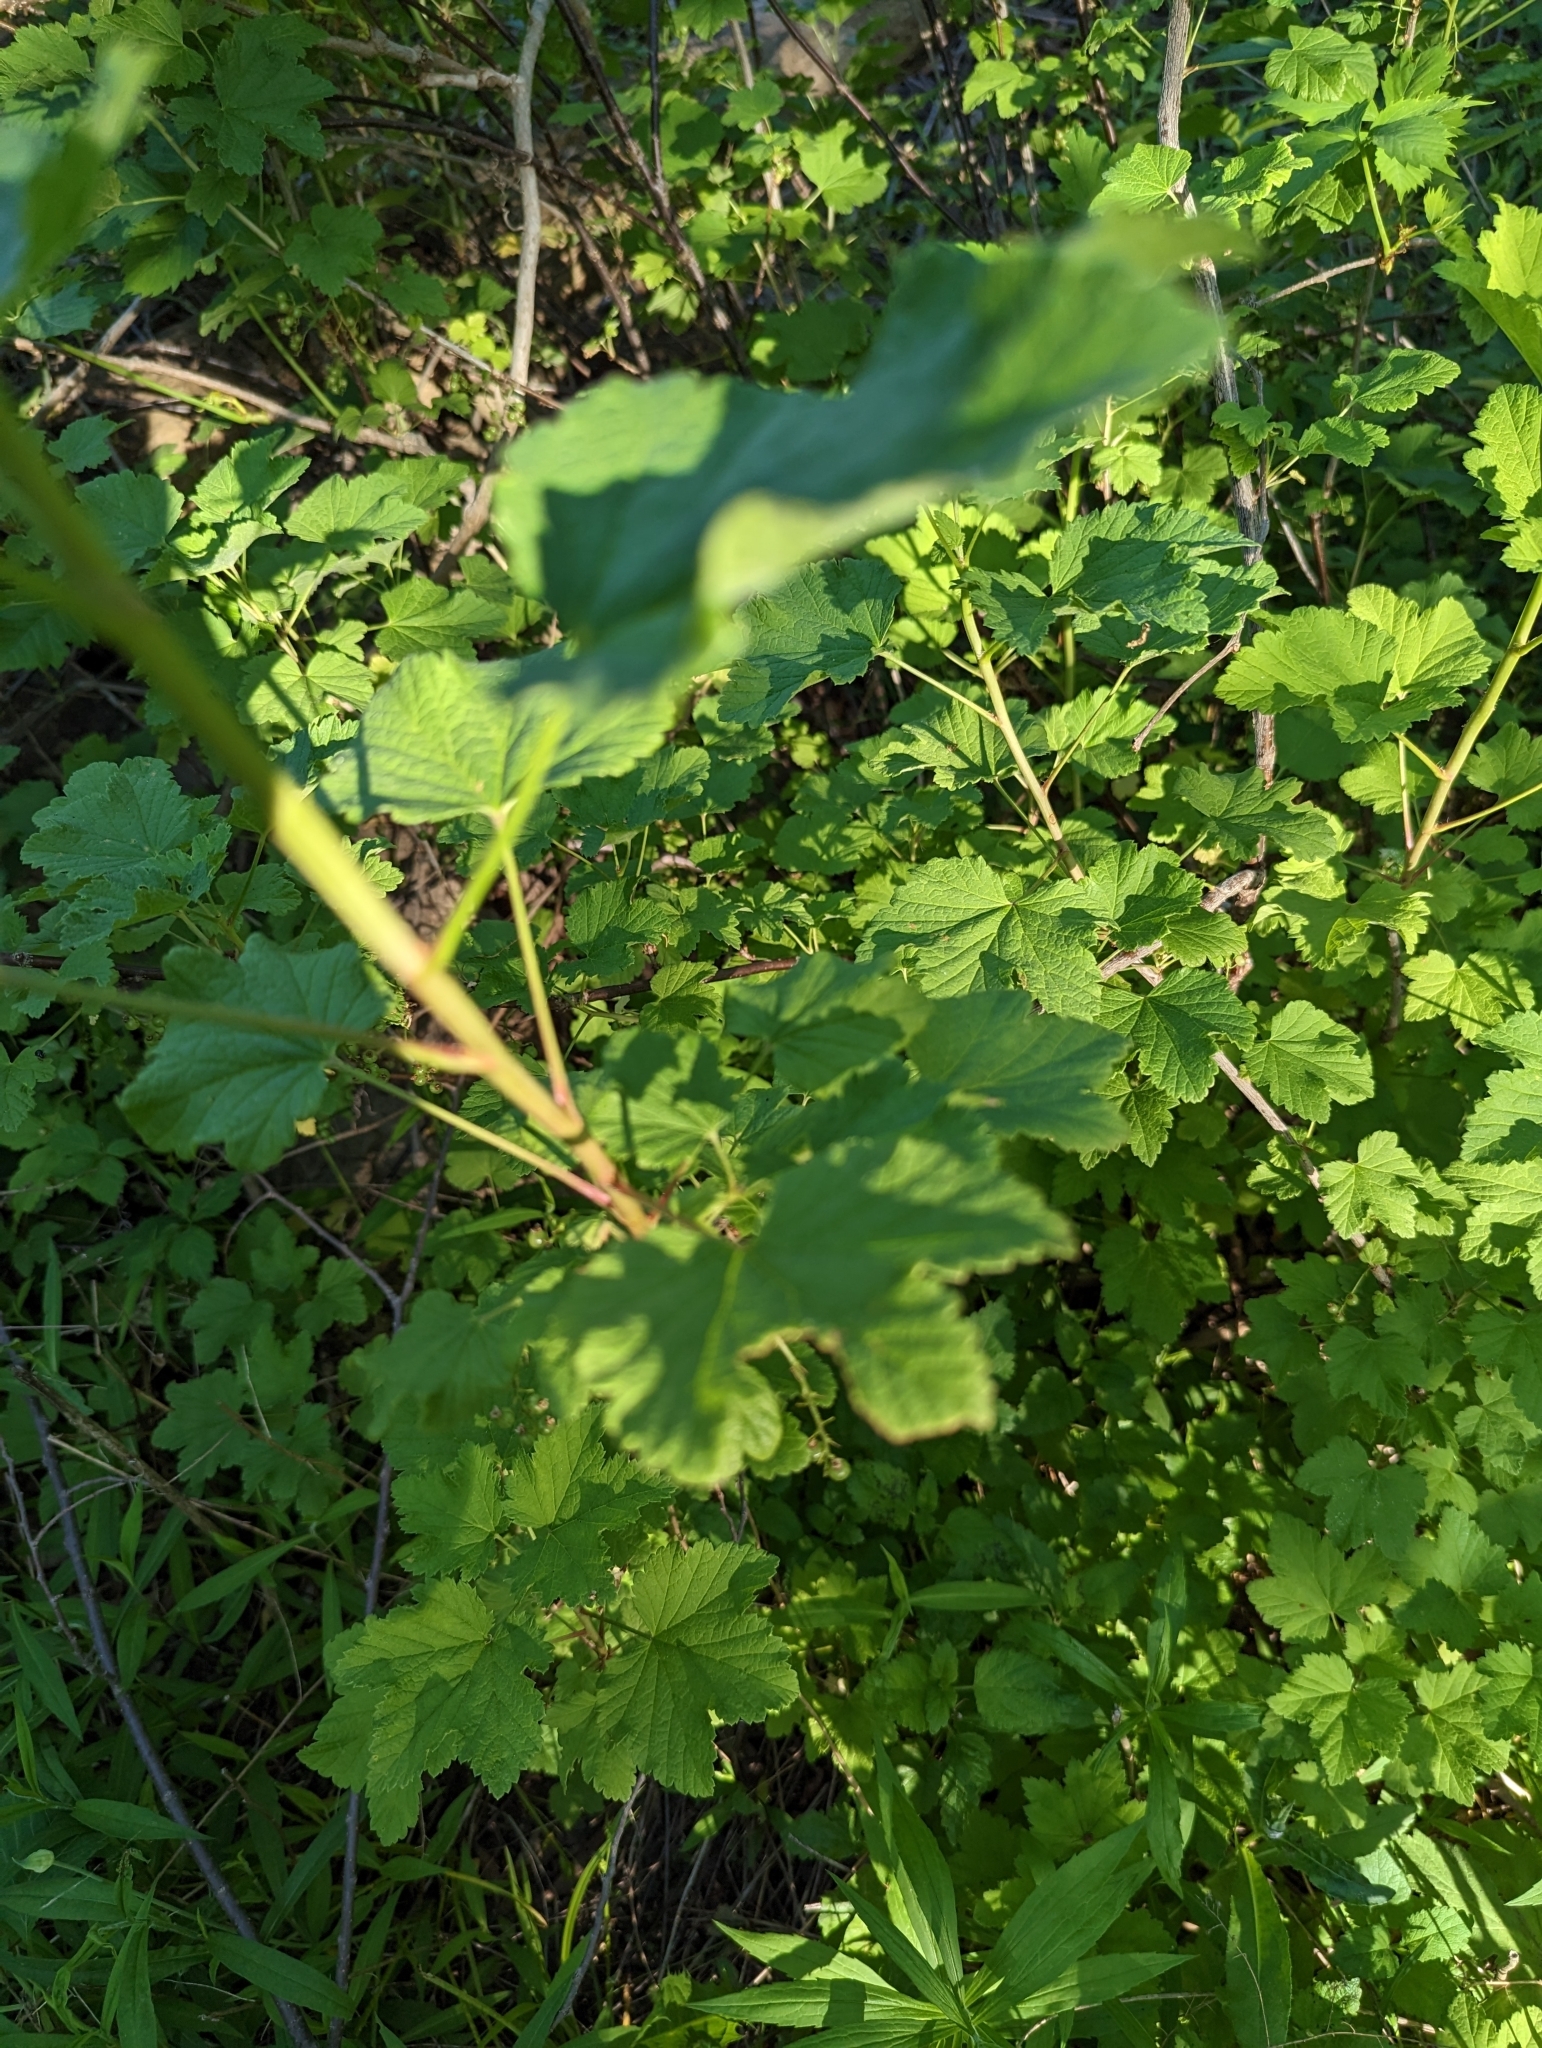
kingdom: Plantae
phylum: Tracheophyta
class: Magnoliopsida
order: Saxifragales
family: Grossulariaceae
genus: Ribes
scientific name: Ribes rubrum
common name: Red currant
